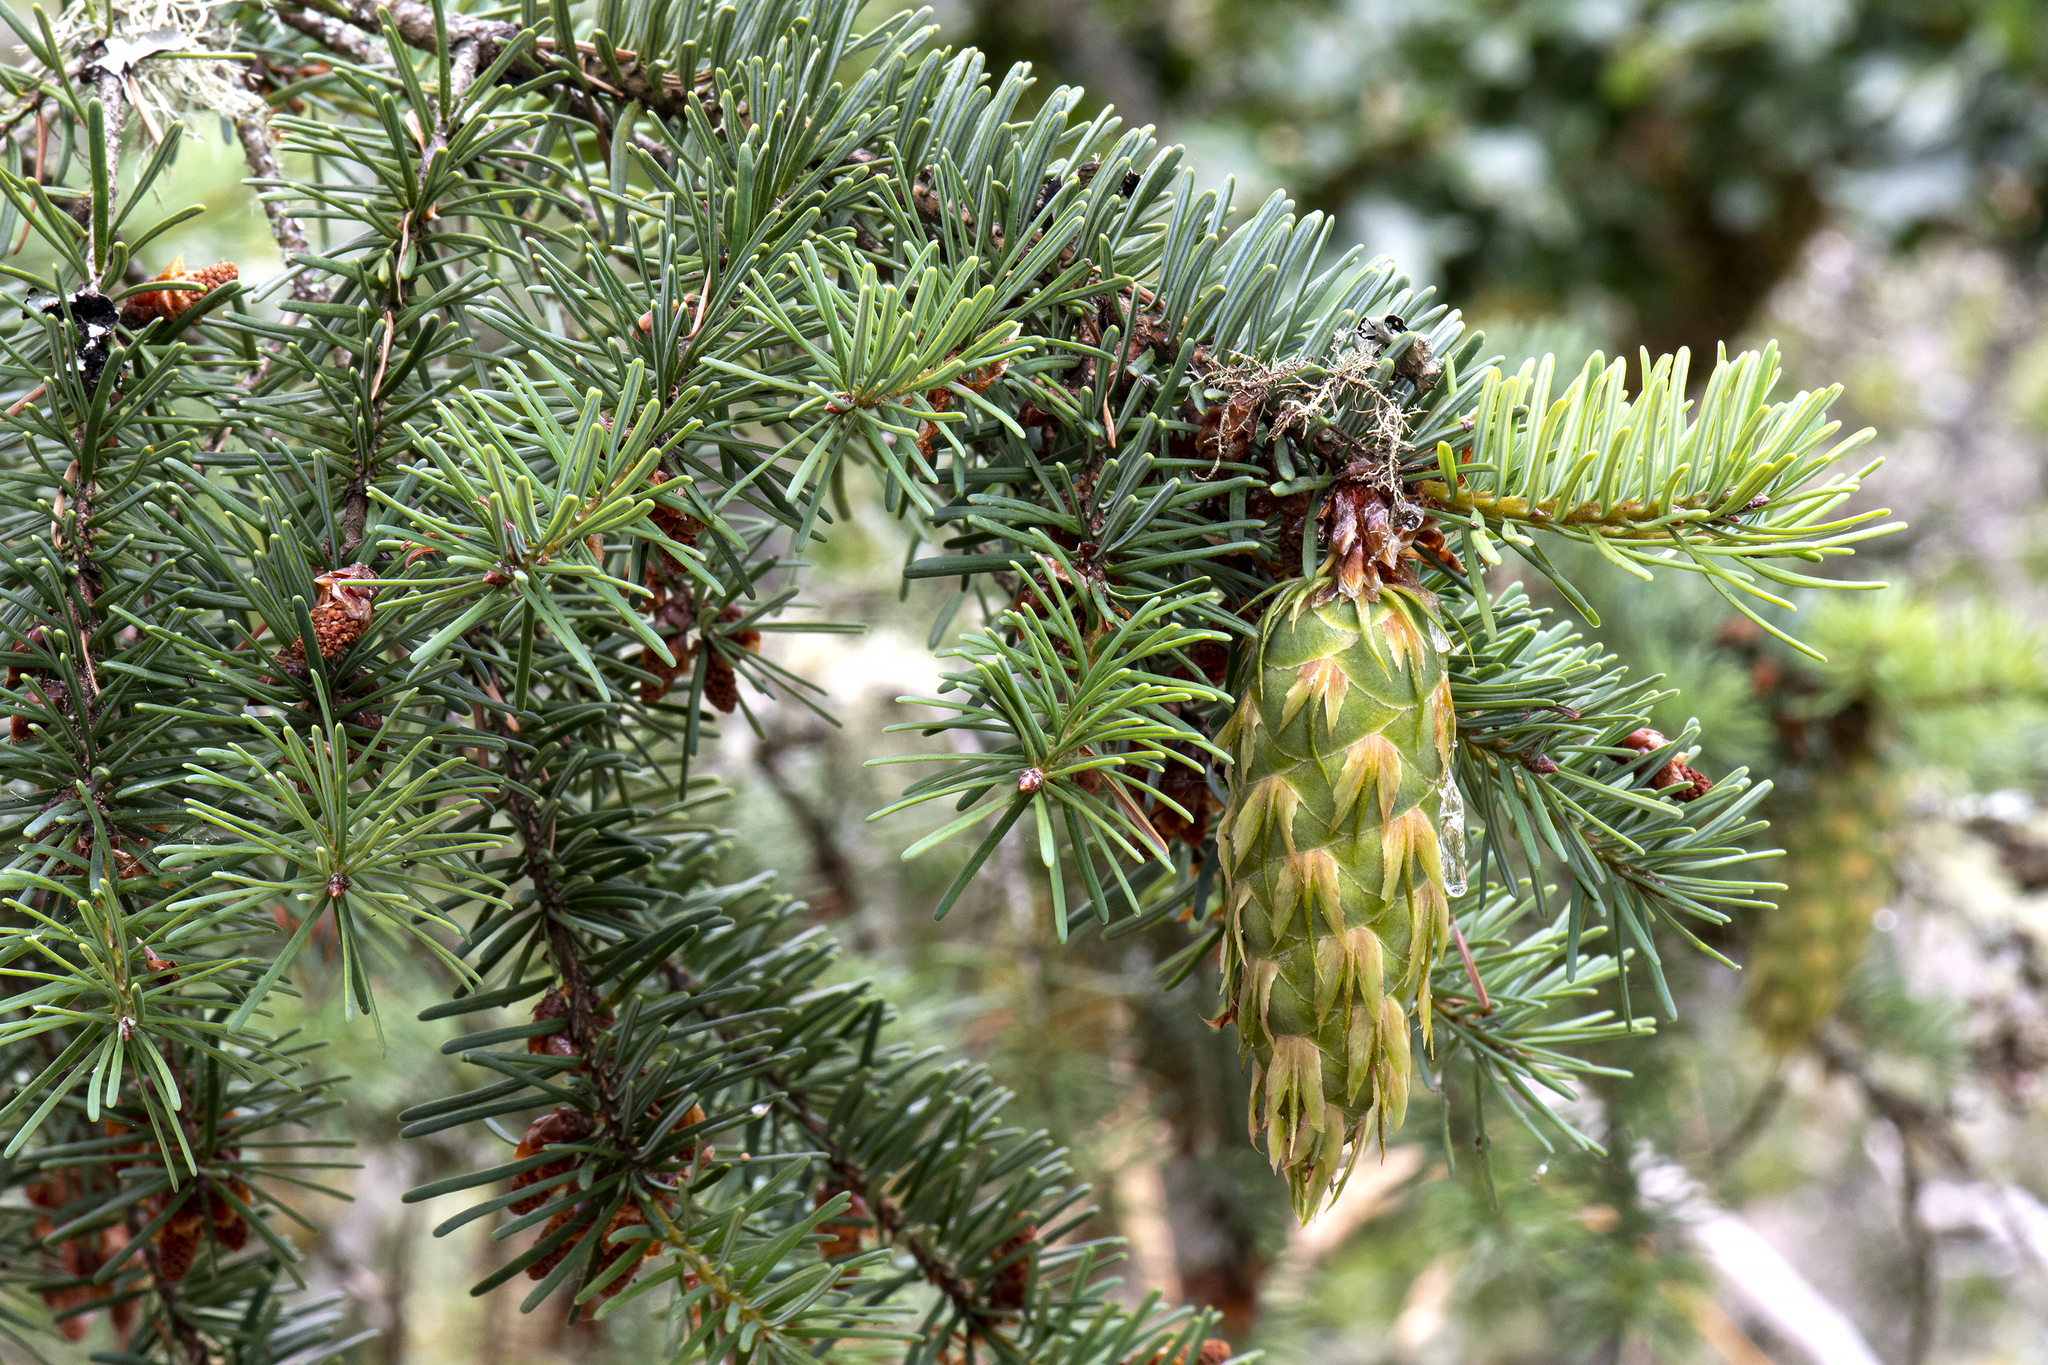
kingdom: Plantae
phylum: Tracheophyta
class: Pinopsida
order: Pinales
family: Pinaceae
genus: Pseudotsuga
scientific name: Pseudotsuga menziesii
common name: Douglas fir
